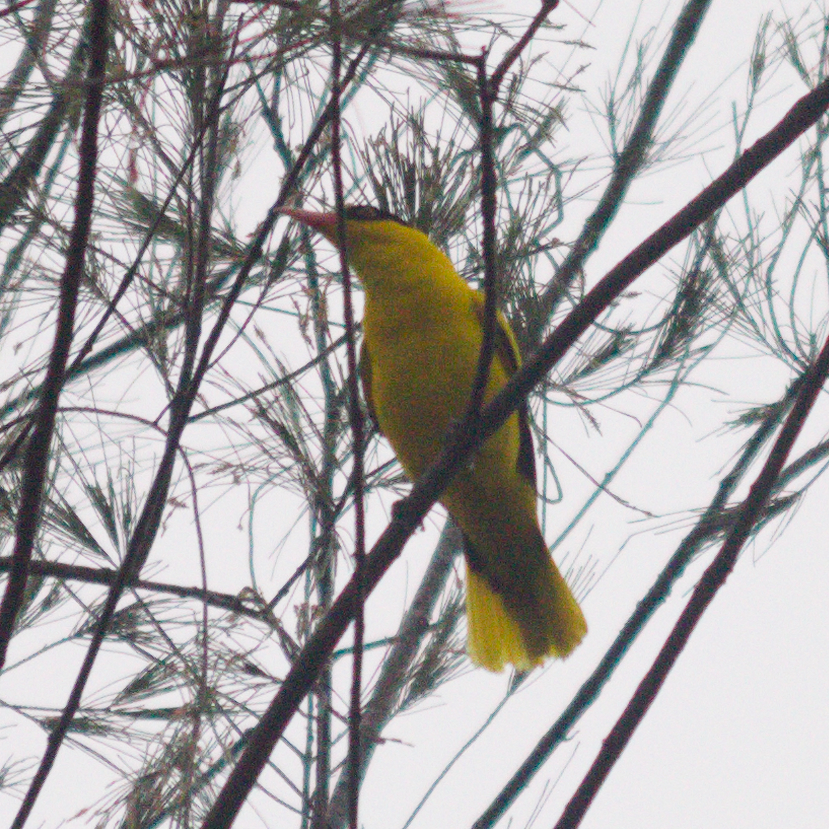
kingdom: Animalia
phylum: Chordata
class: Aves
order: Passeriformes
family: Oriolidae
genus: Oriolus
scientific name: Oriolus chinensis
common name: Black-naped oriole
